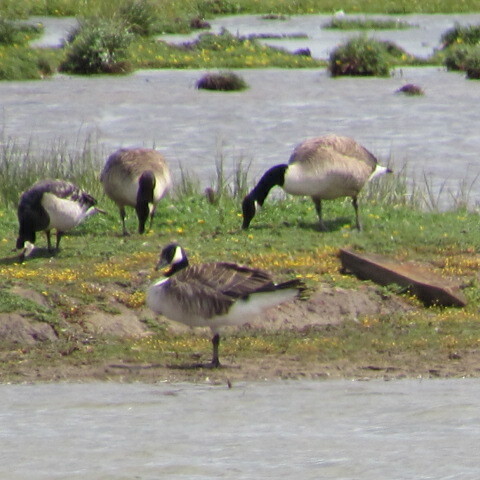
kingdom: Animalia
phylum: Chordata
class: Aves
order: Anseriformes
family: Anatidae
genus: Branta
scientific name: Branta canadensis
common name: Canada goose
